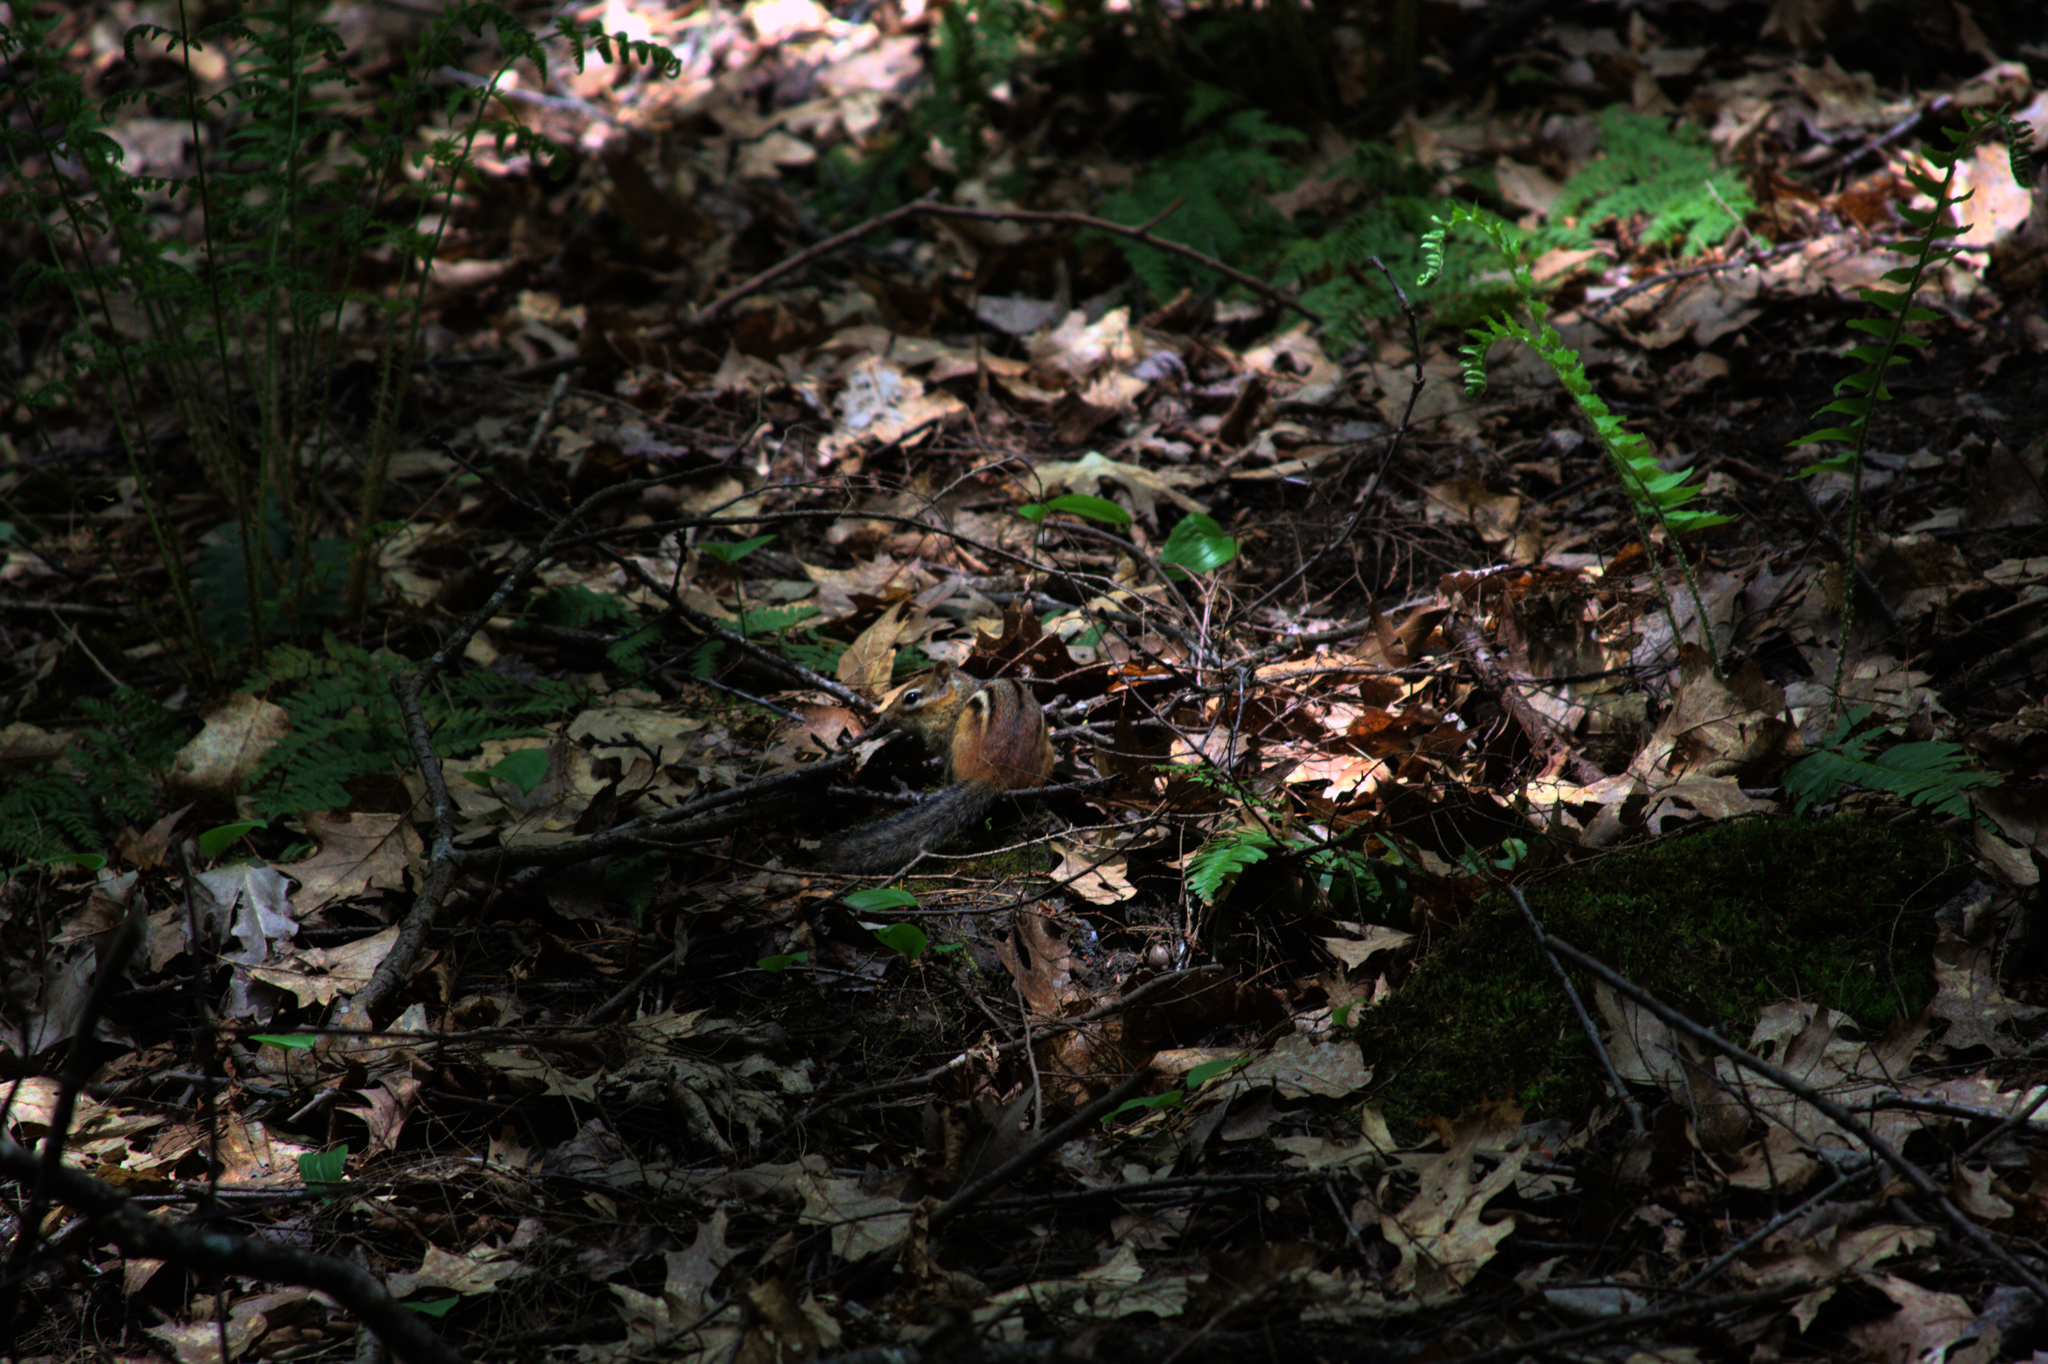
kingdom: Animalia
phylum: Chordata
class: Mammalia
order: Rodentia
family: Sciuridae
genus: Tamias
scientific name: Tamias striatus
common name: Eastern chipmunk
